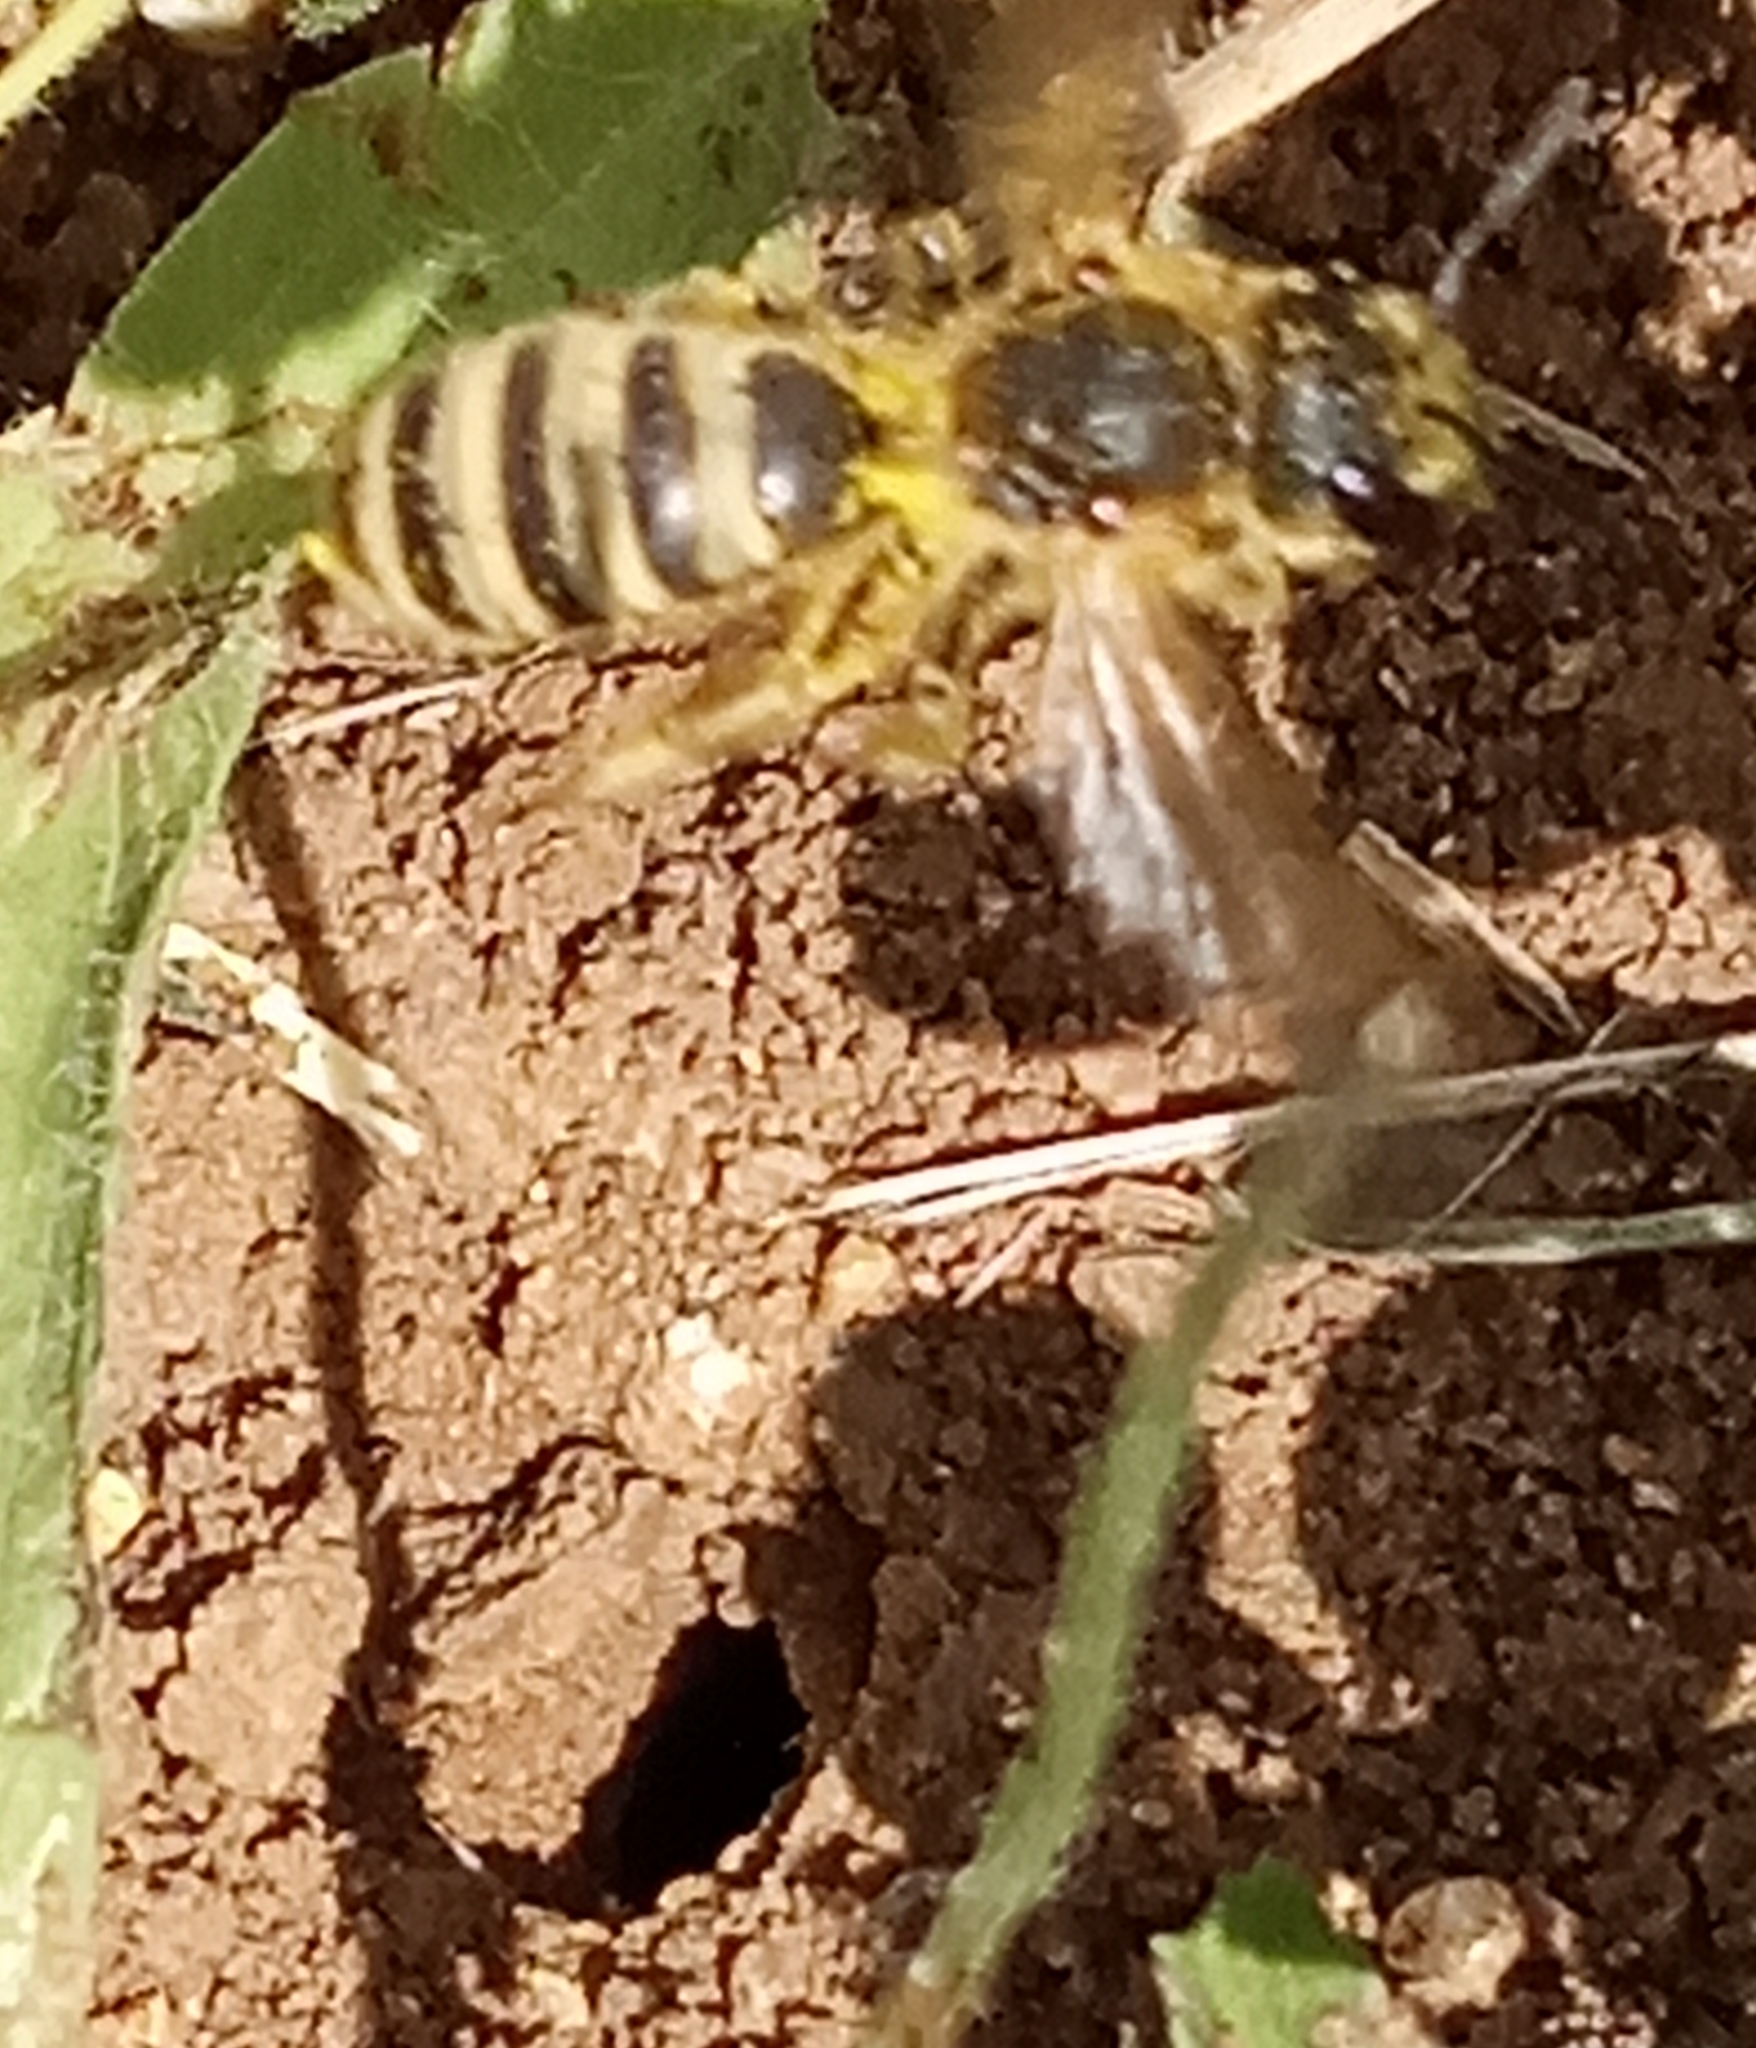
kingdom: Animalia
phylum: Arthropoda
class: Insecta
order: Hymenoptera
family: Halictidae
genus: Halictus
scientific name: Halictus scabiosae
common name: Great banded furrow bee
